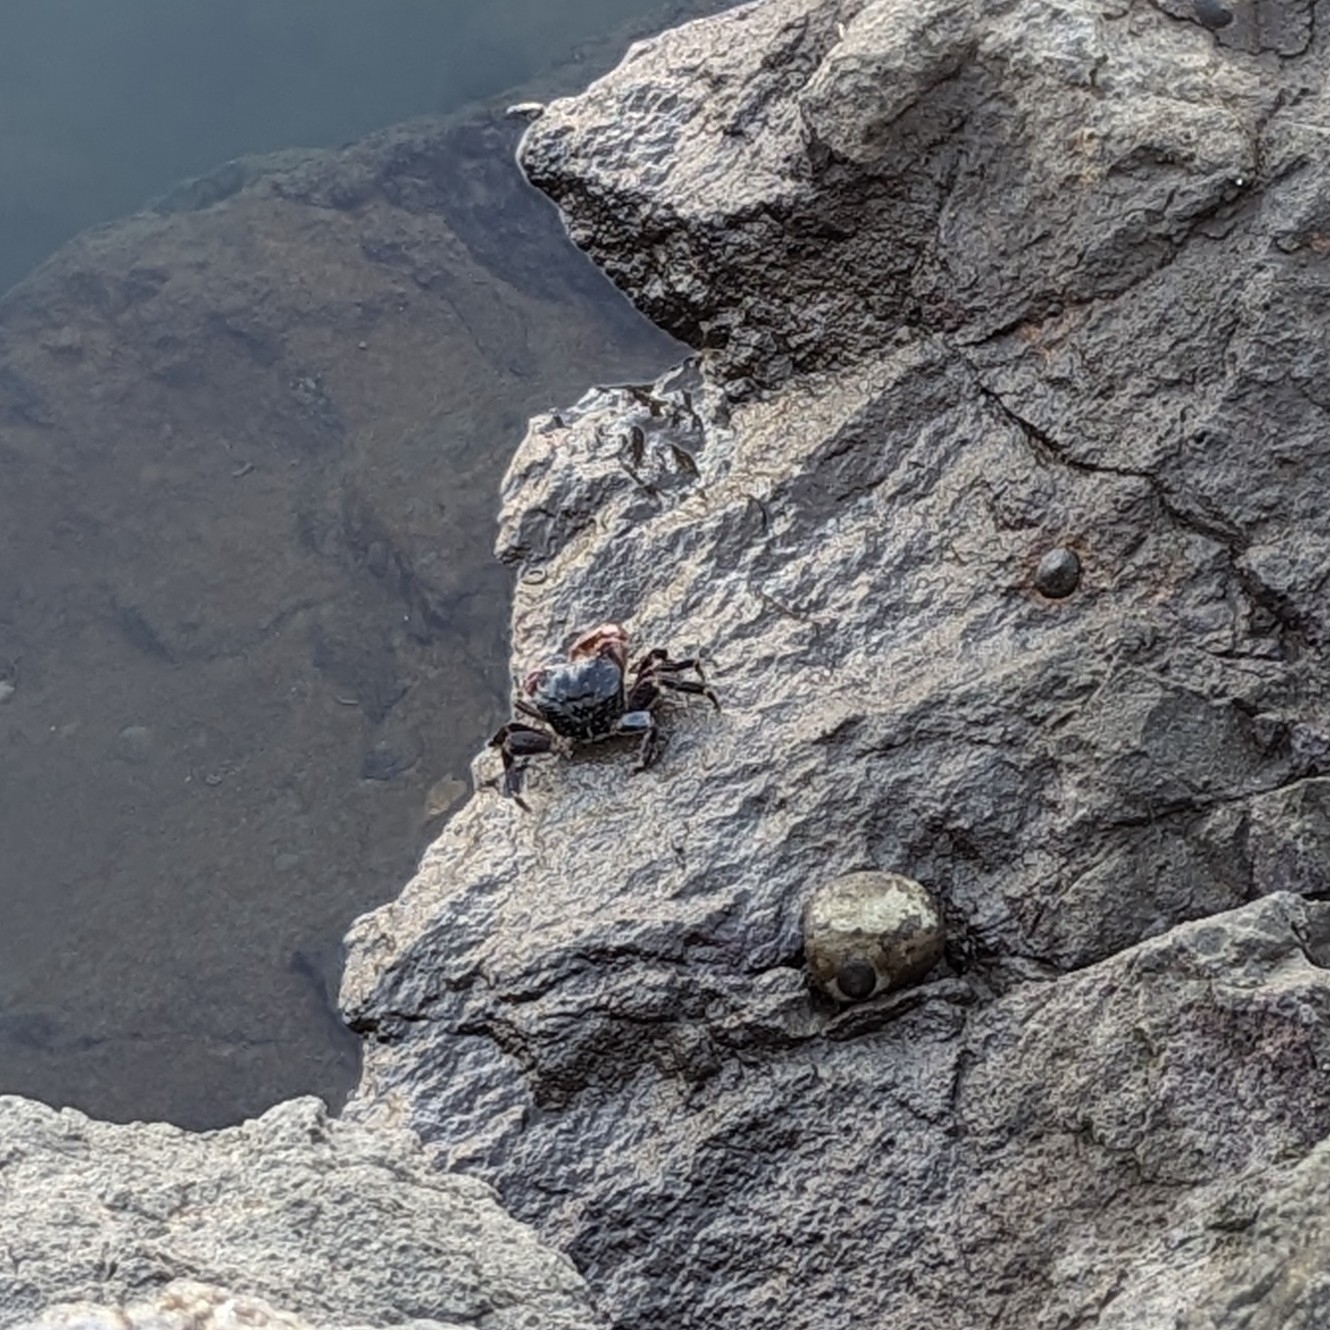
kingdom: Animalia
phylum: Arthropoda
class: Malacostraca
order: Decapoda
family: Grapsidae
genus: Pachygrapsus
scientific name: Pachygrapsus crassipes
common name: Striped shore crab
